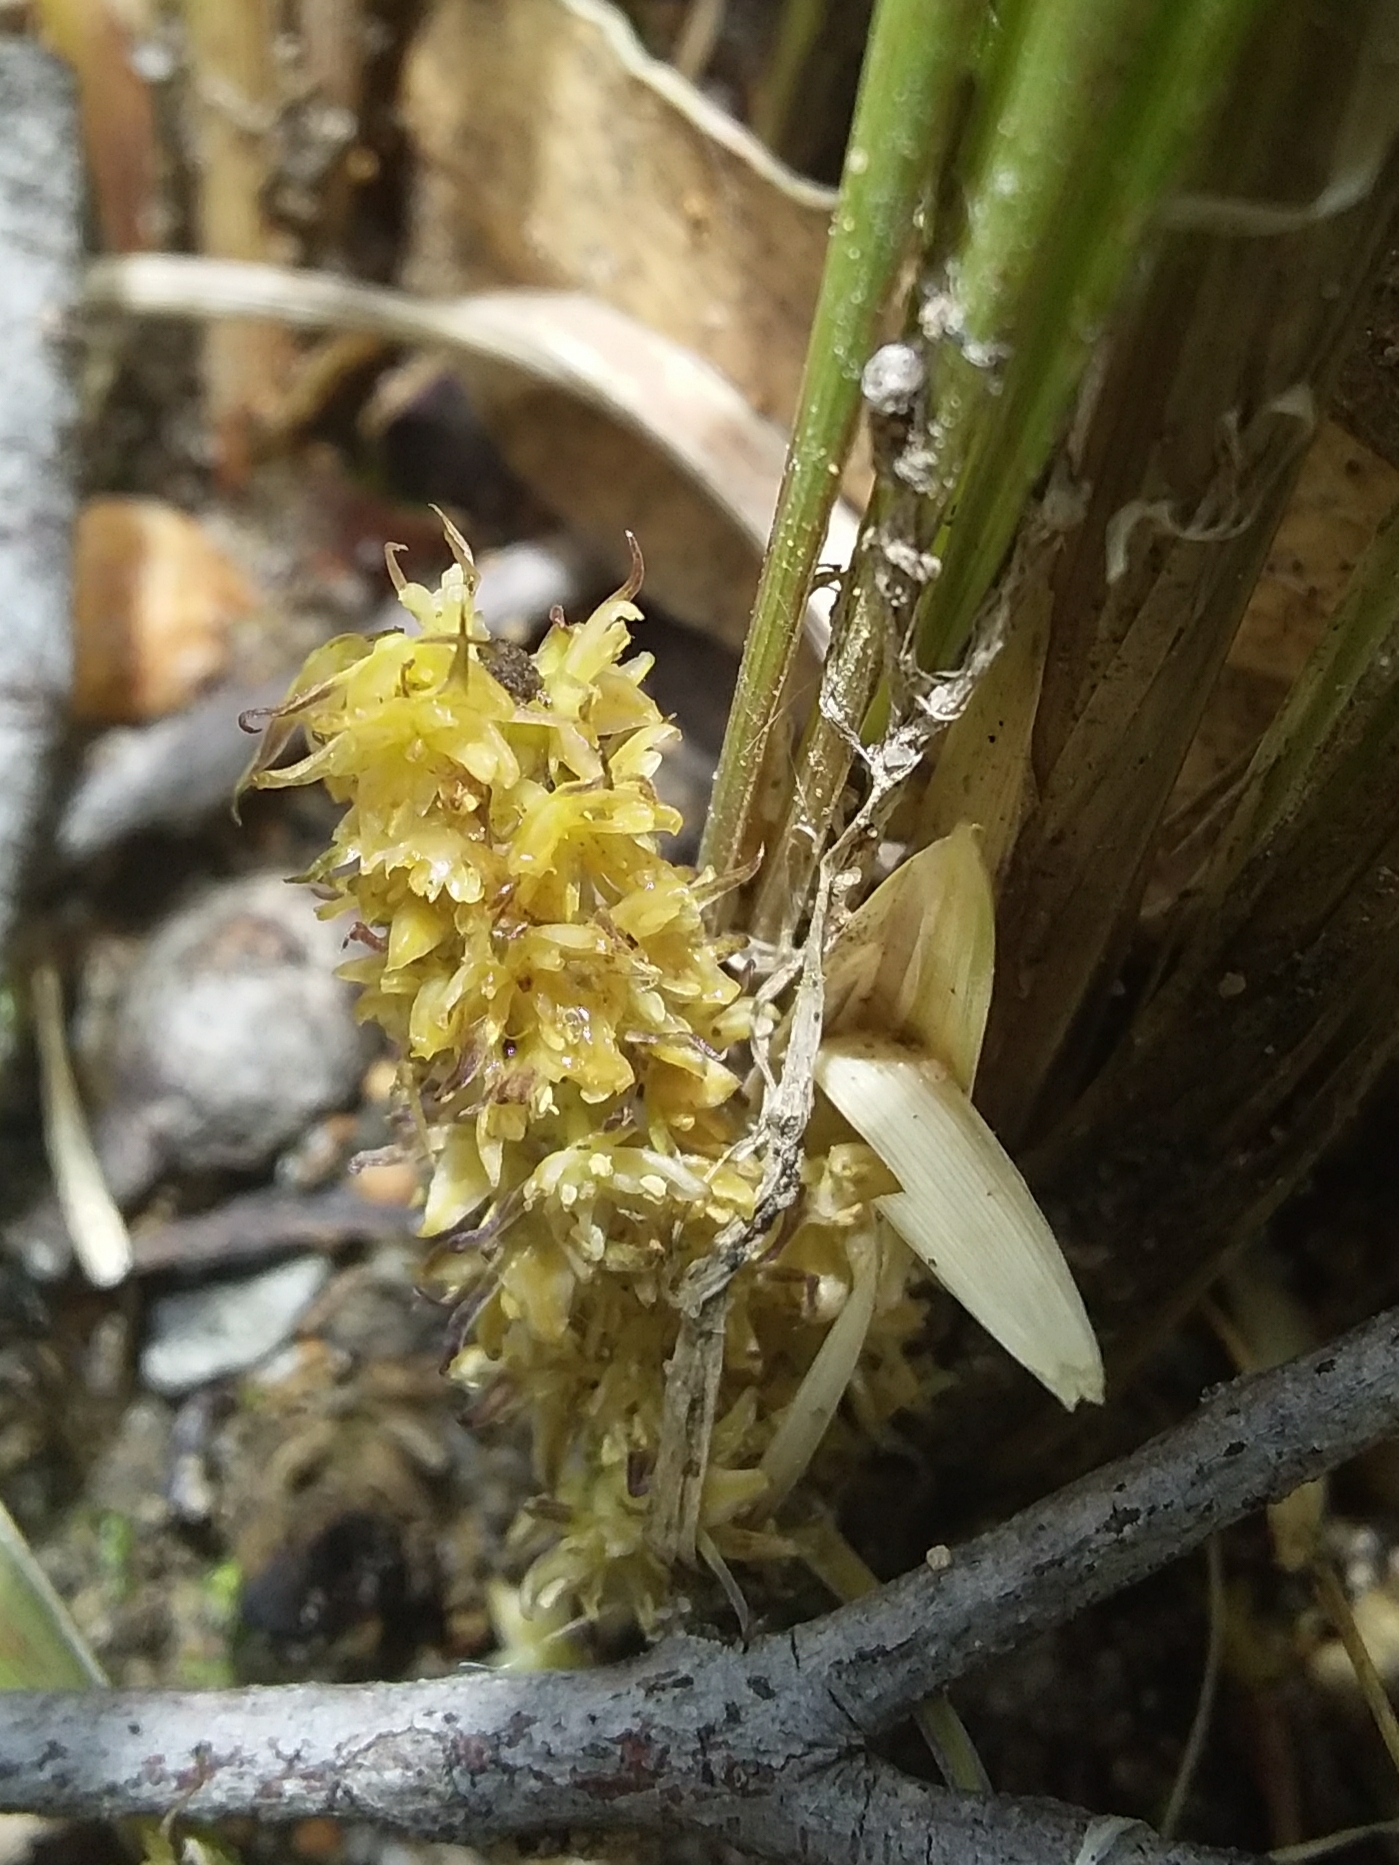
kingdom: Plantae
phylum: Tracheophyta
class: Liliopsida
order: Asparagales
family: Asparagaceae
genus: Lomandra
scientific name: Lomandra densiflora
